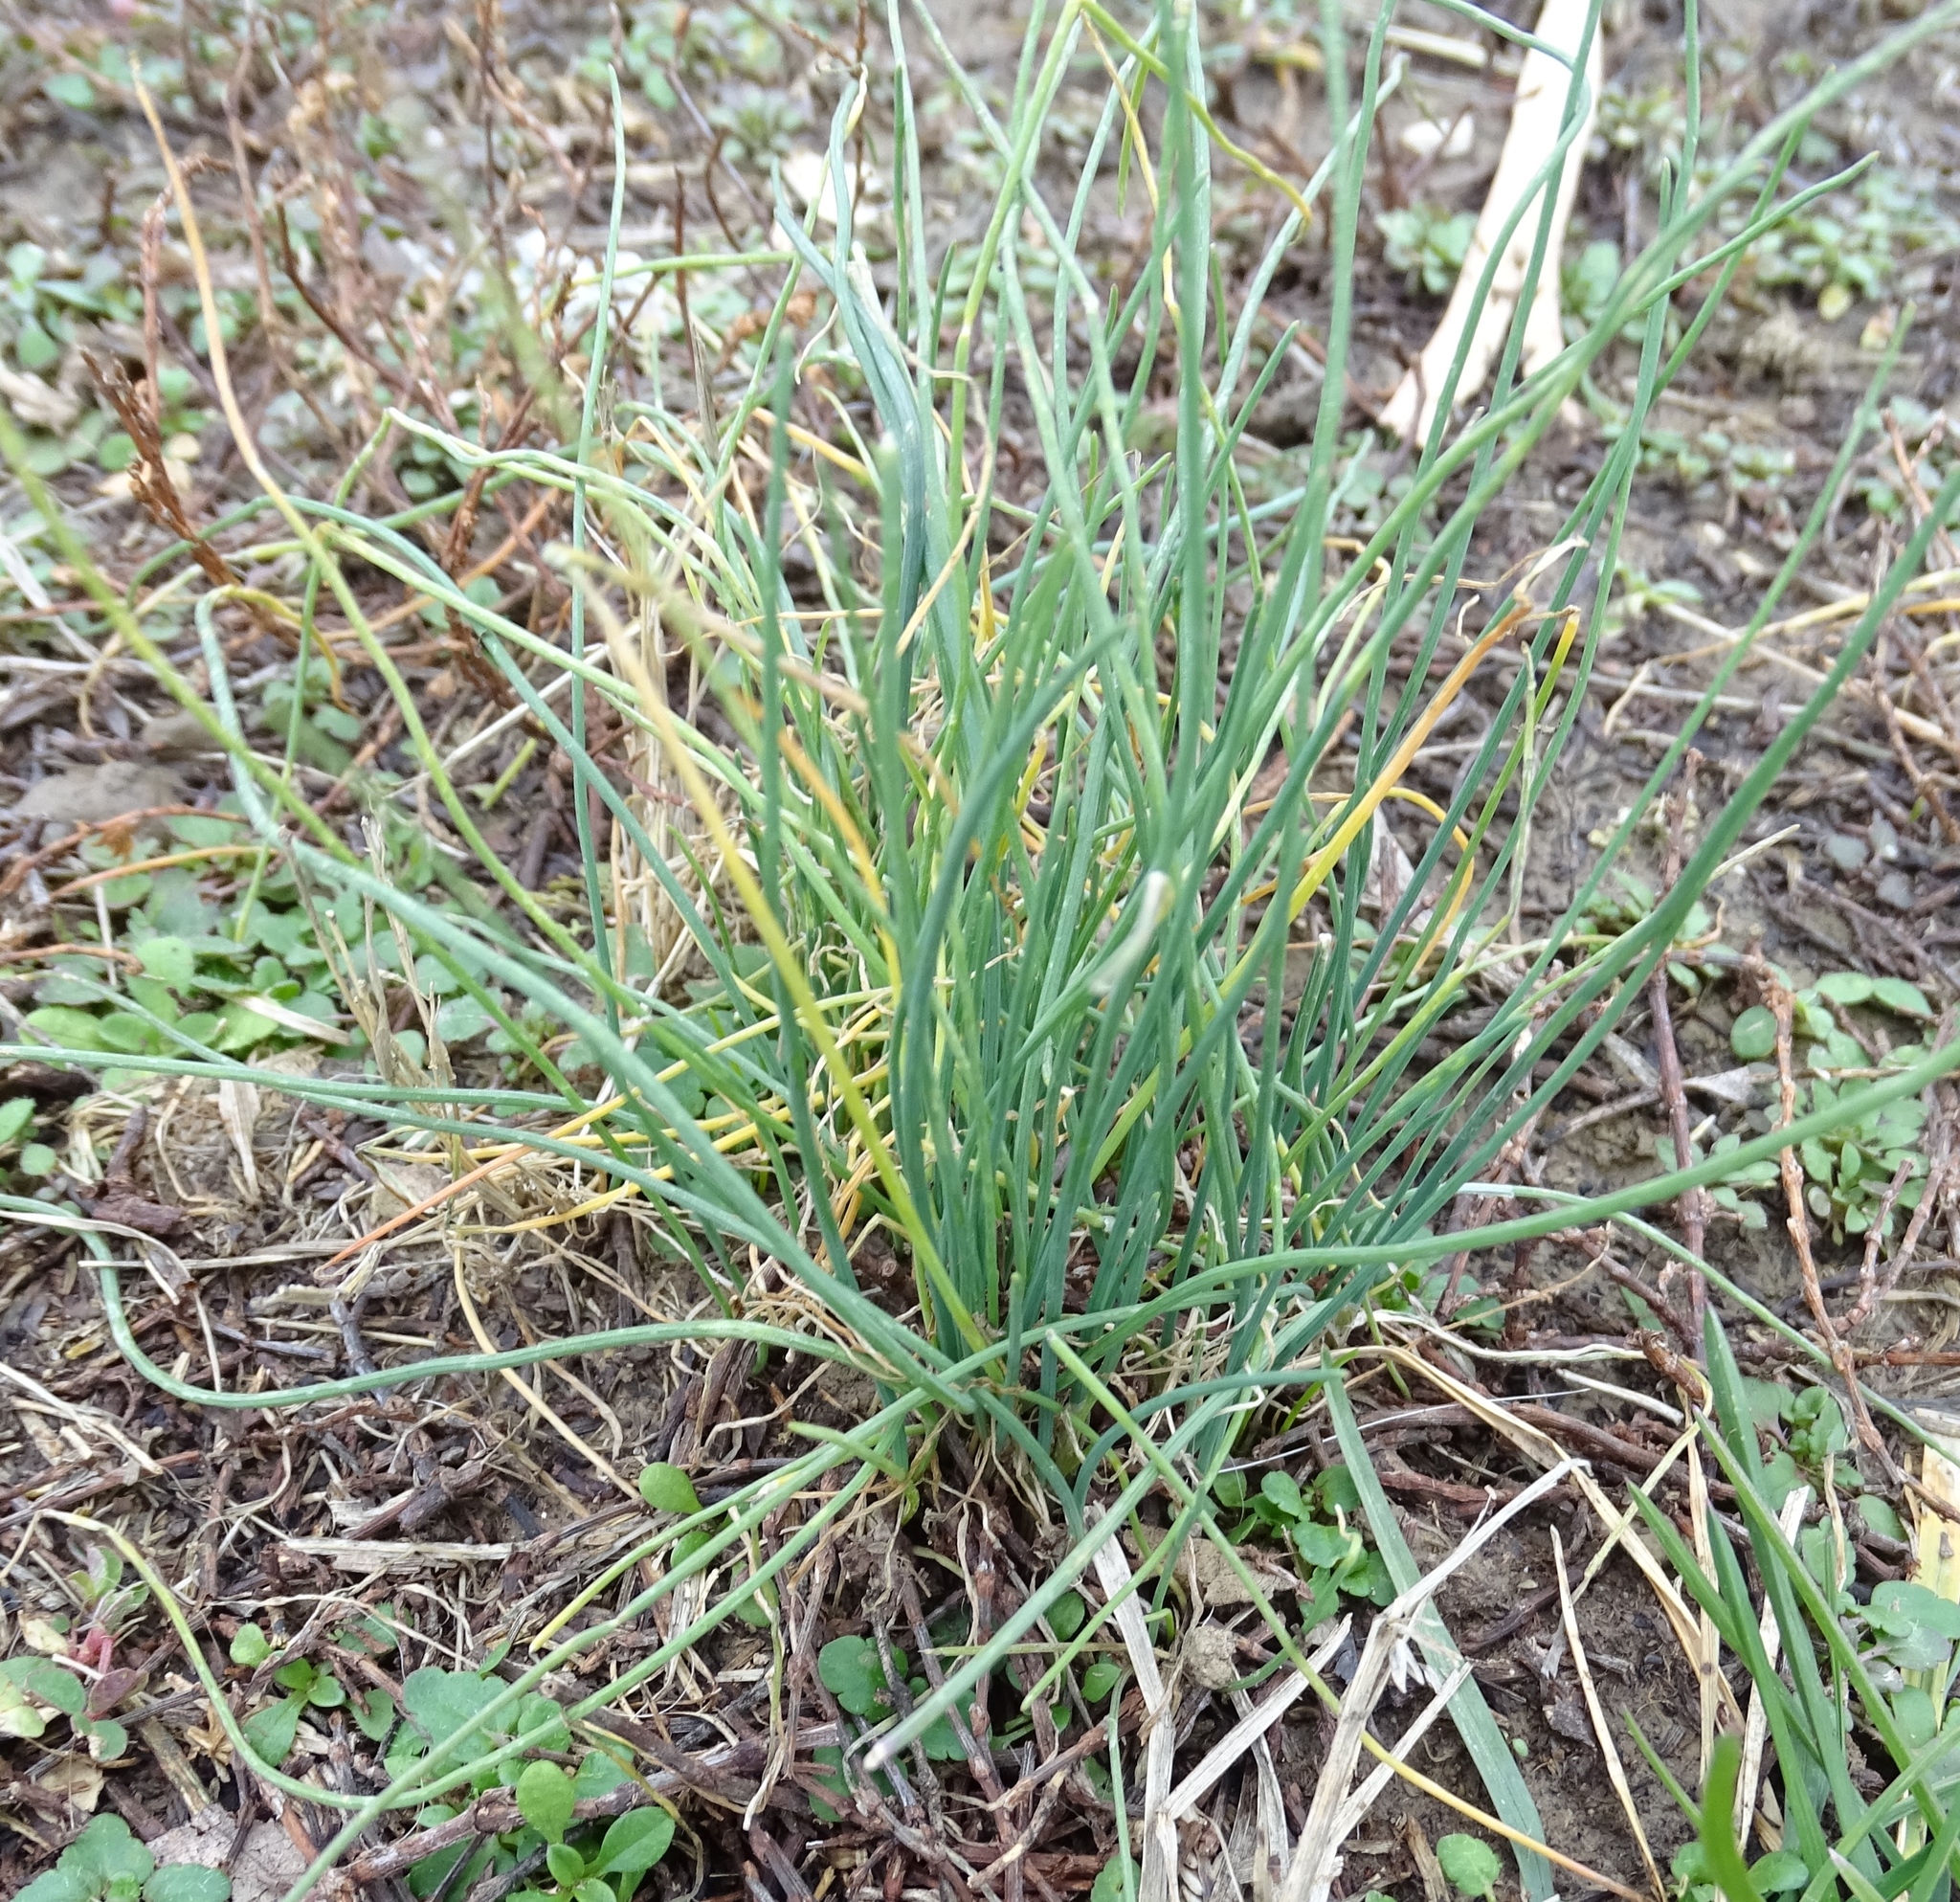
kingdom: Plantae
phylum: Tracheophyta
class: Liliopsida
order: Asparagales
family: Amaryllidaceae
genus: Allium
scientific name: Allium vineale
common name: Crow garlic
